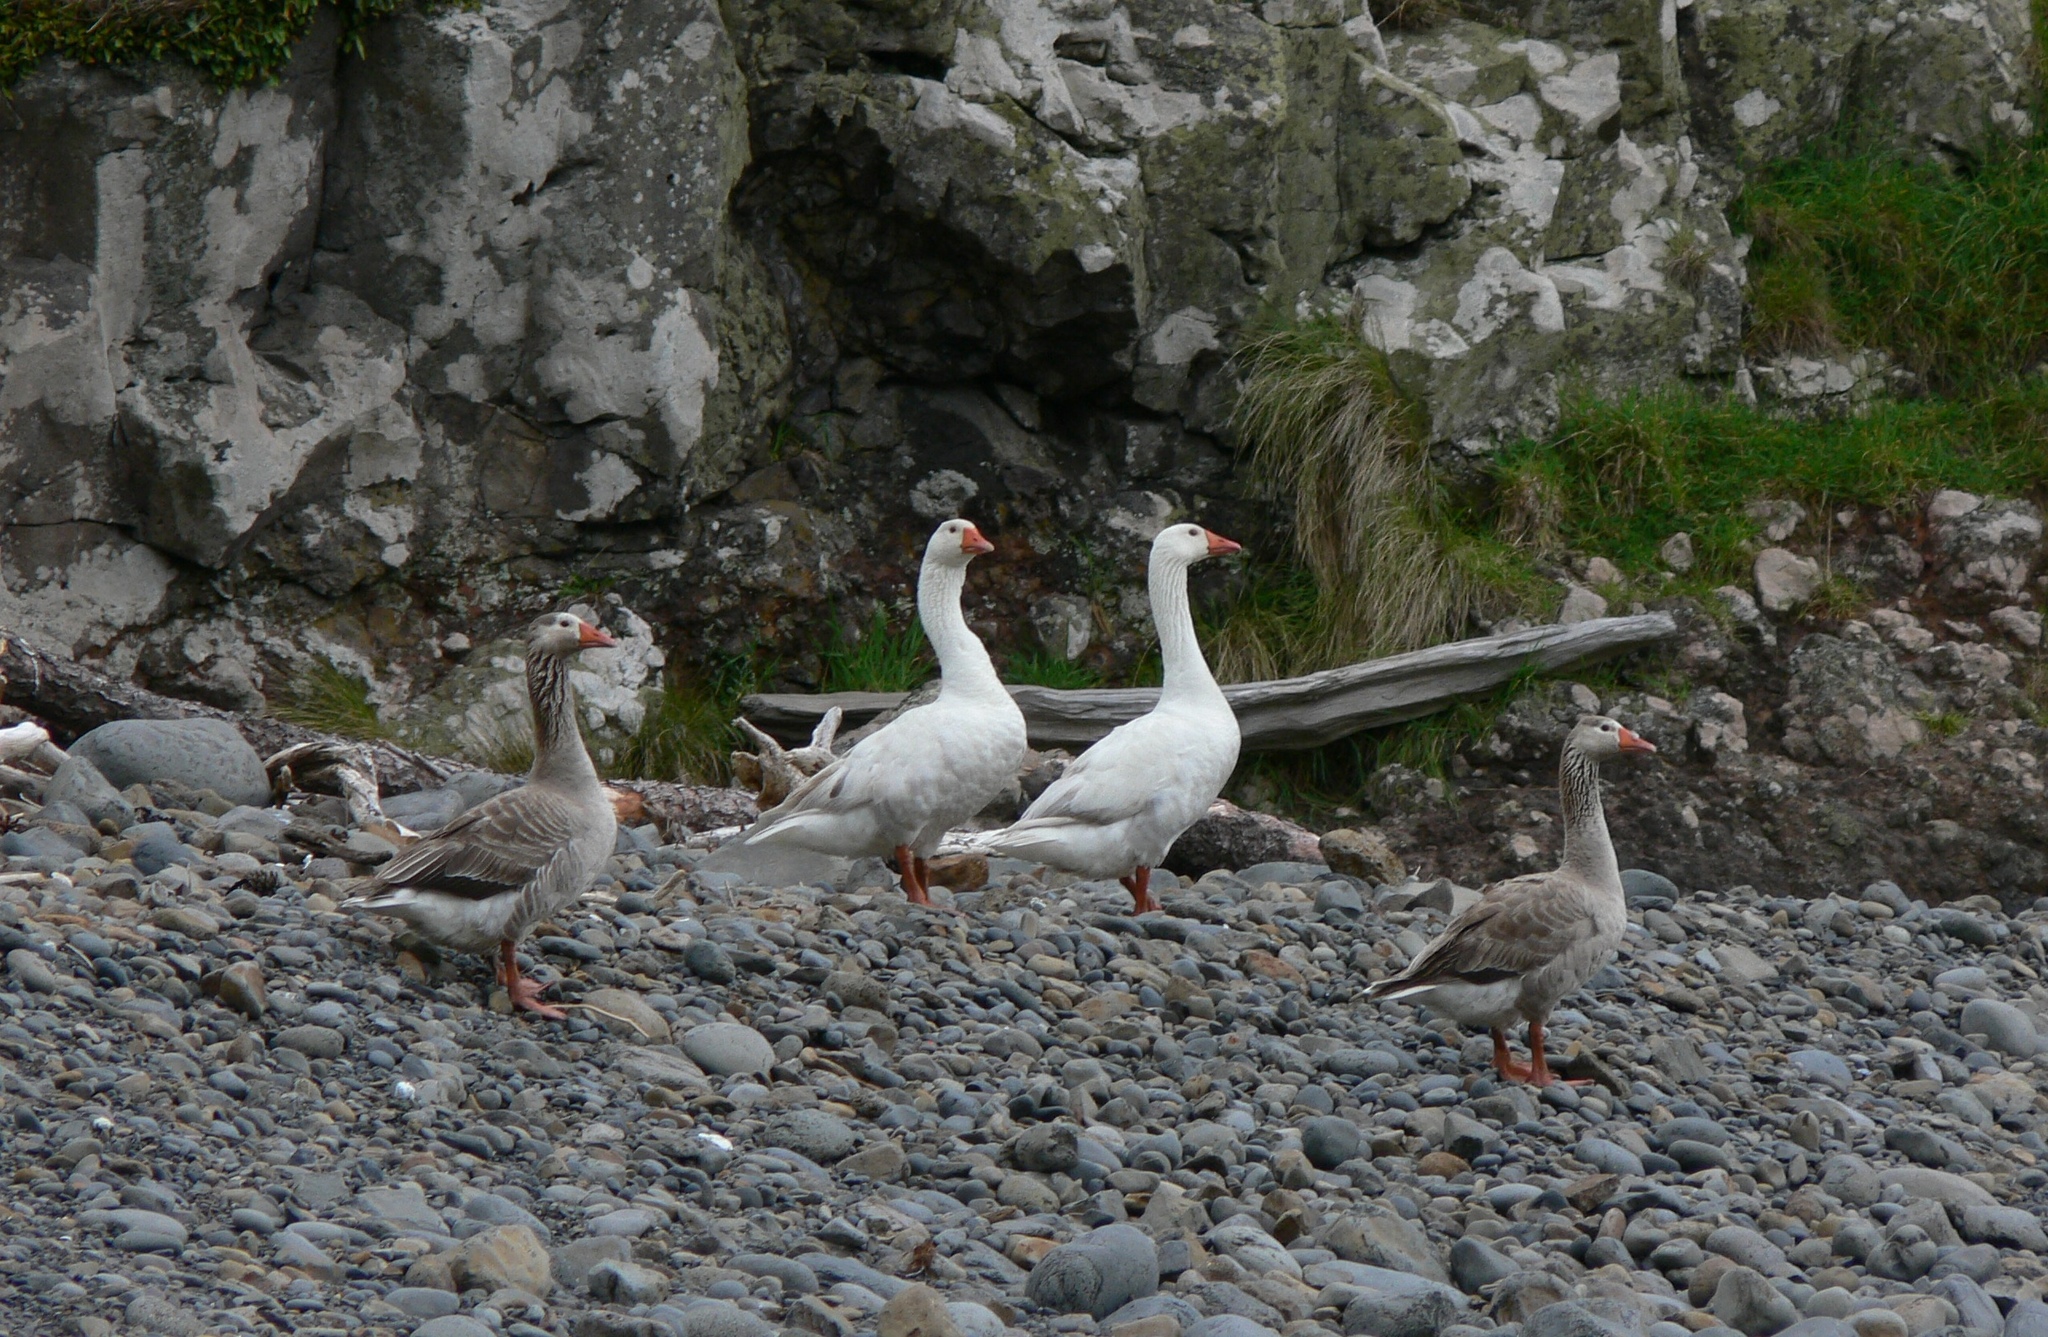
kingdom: Animalia
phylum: Chordata
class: Aves
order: Anseriformes
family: Anatidae
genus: Anser
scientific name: Anser anser
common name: Greylag goose
